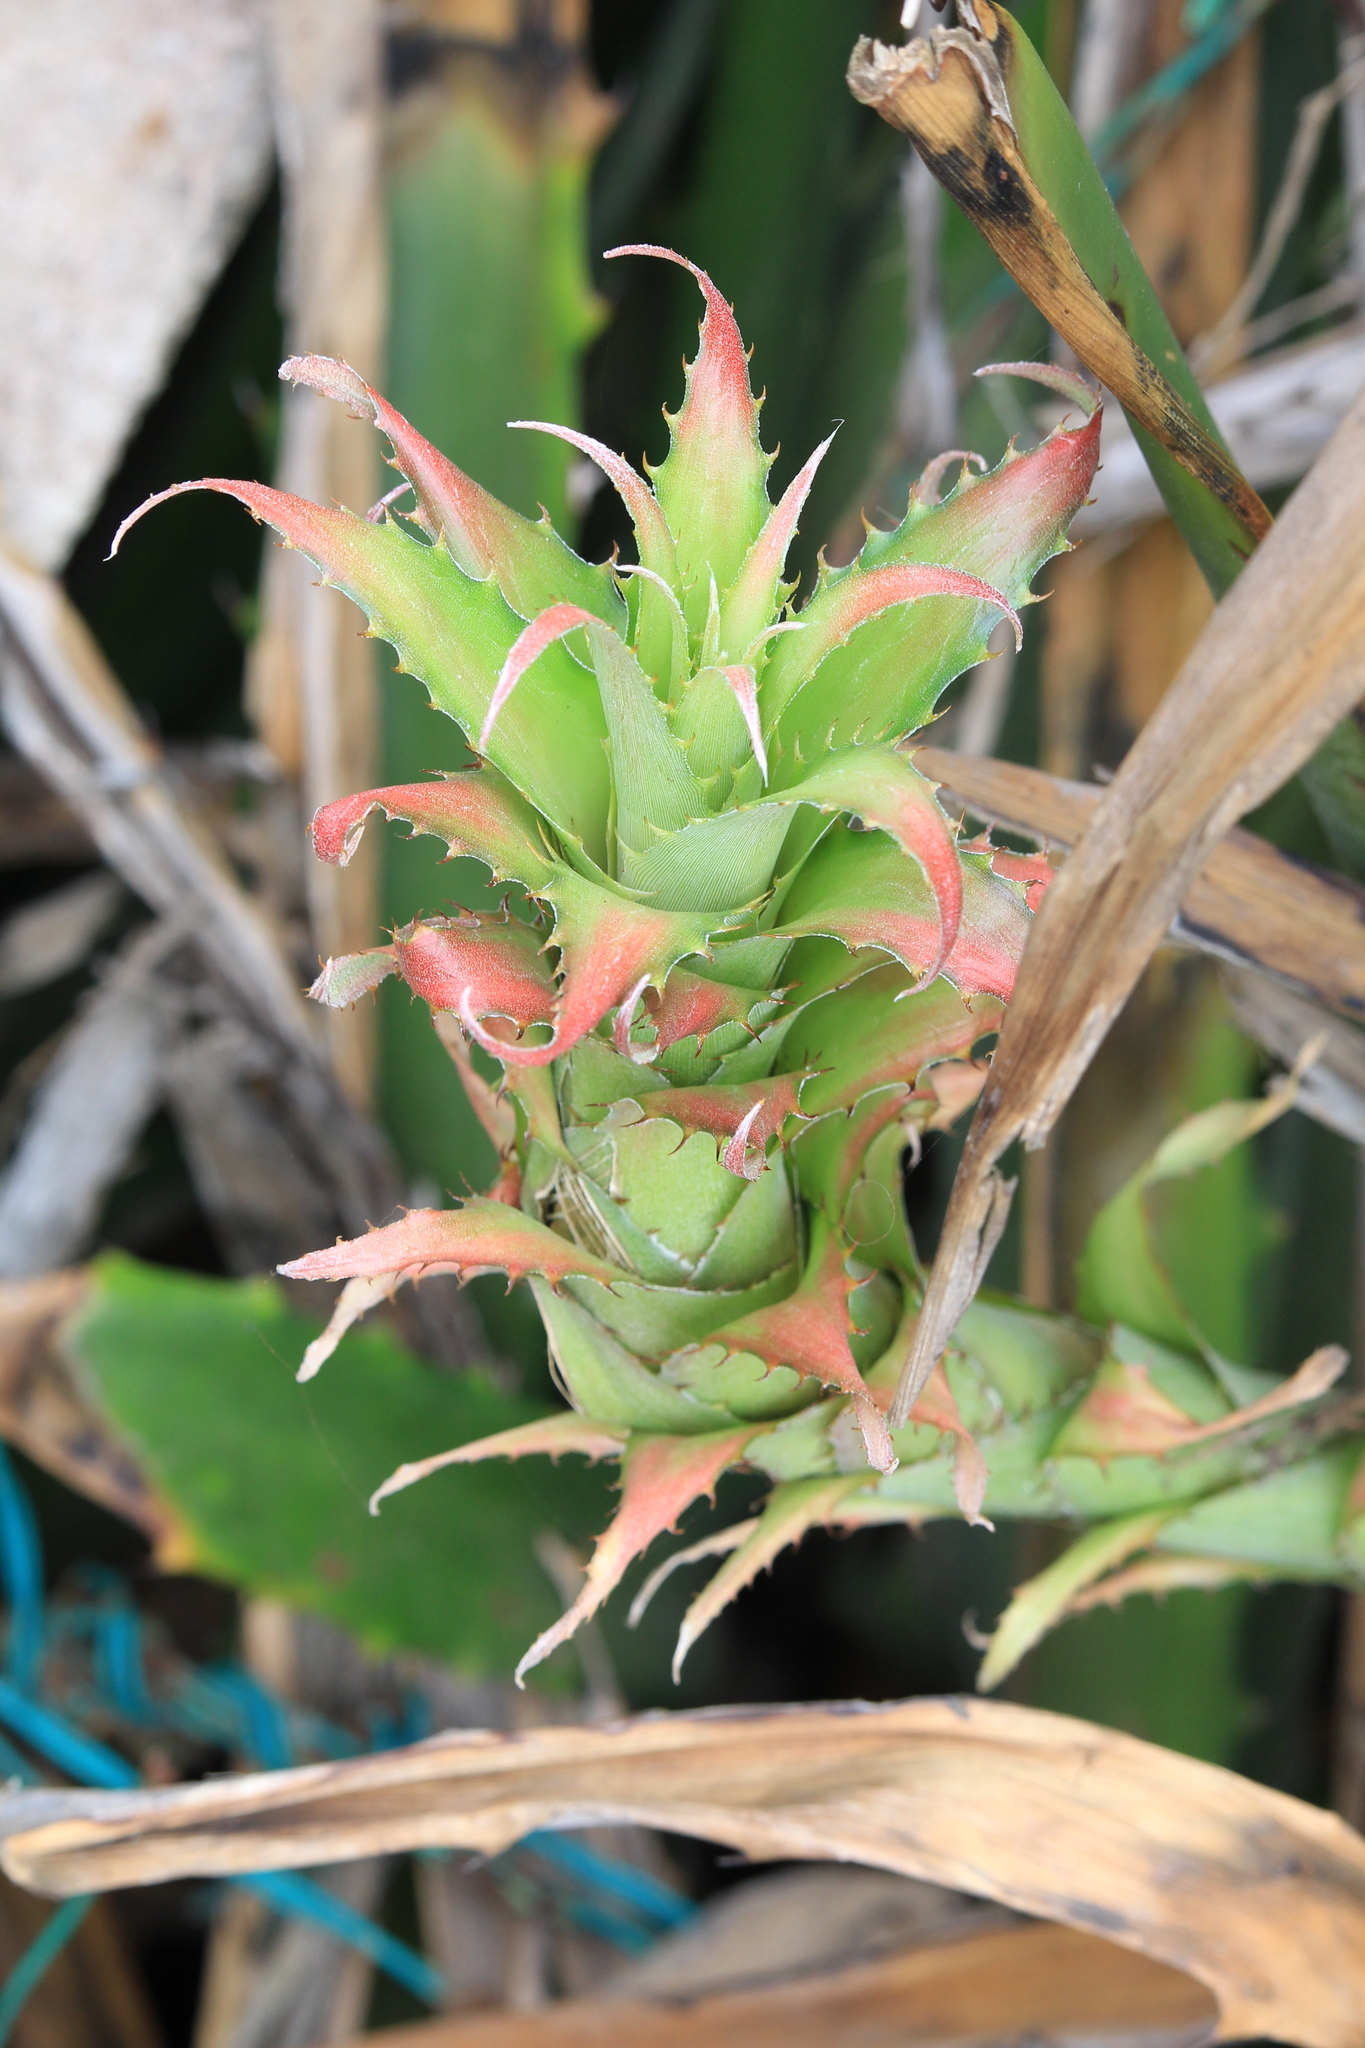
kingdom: Plantae
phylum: Tracheophyta
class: Liliopsida
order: Poales
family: Bromeliaceae
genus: Bromelia
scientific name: Bromelia pinguin
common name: Pinguin
